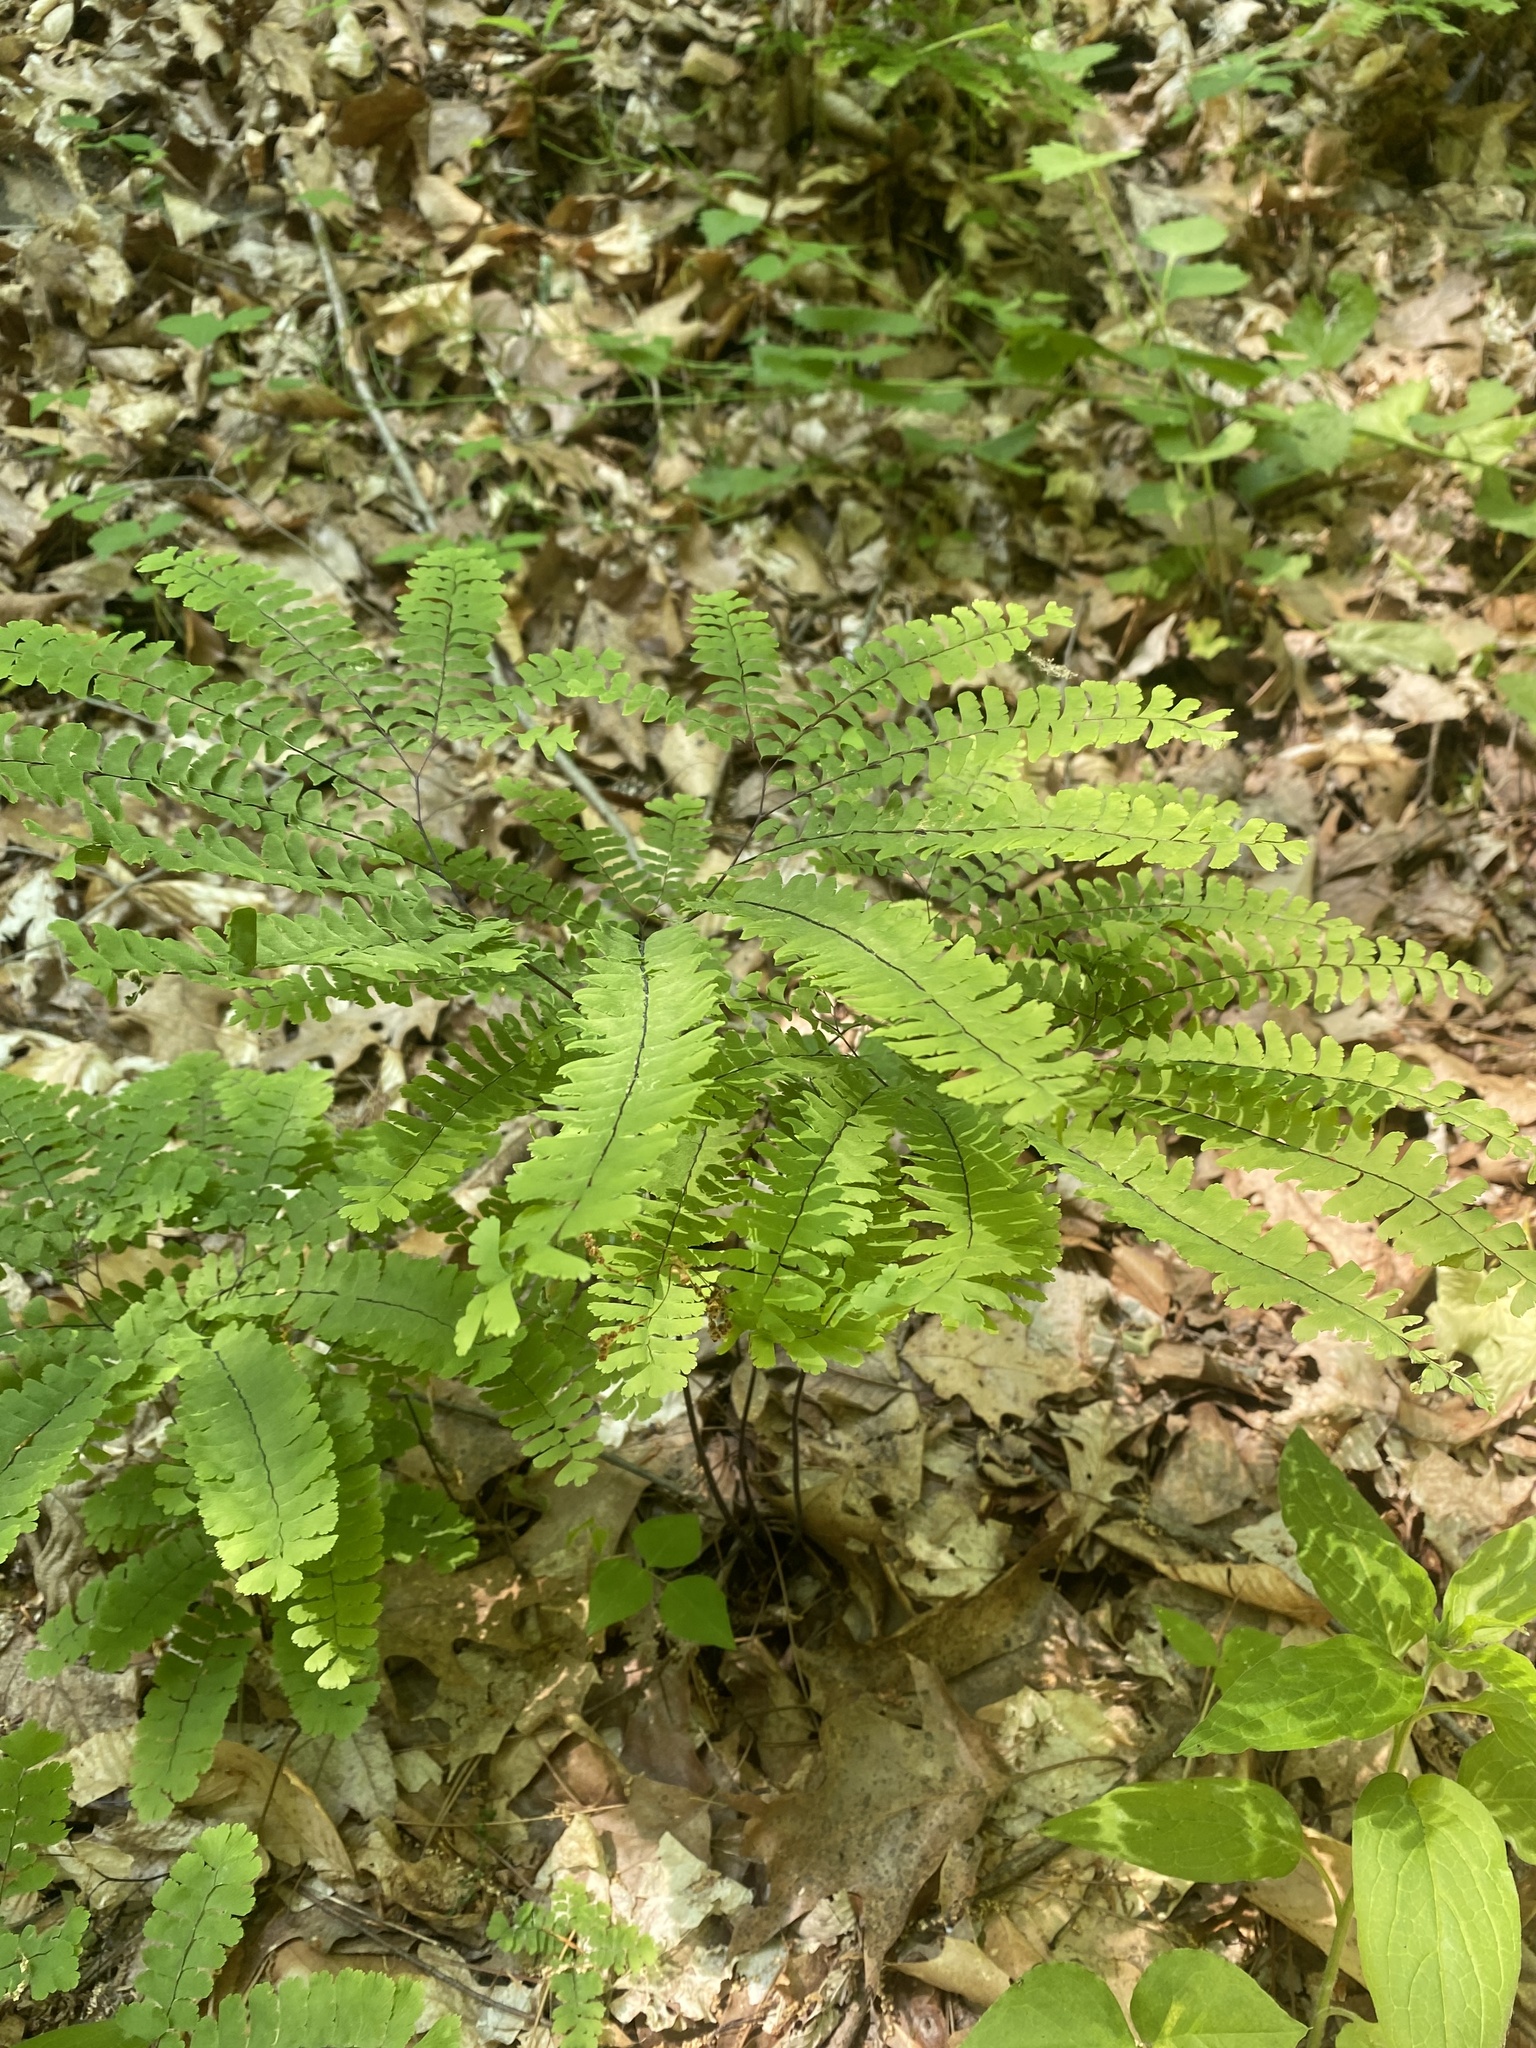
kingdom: Plantae
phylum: Tracheophyta
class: Polypodiopsida
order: Polypodiales
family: Pteridaceae
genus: Adiantum
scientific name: Adiantum pedatum
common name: Five-finger fern
